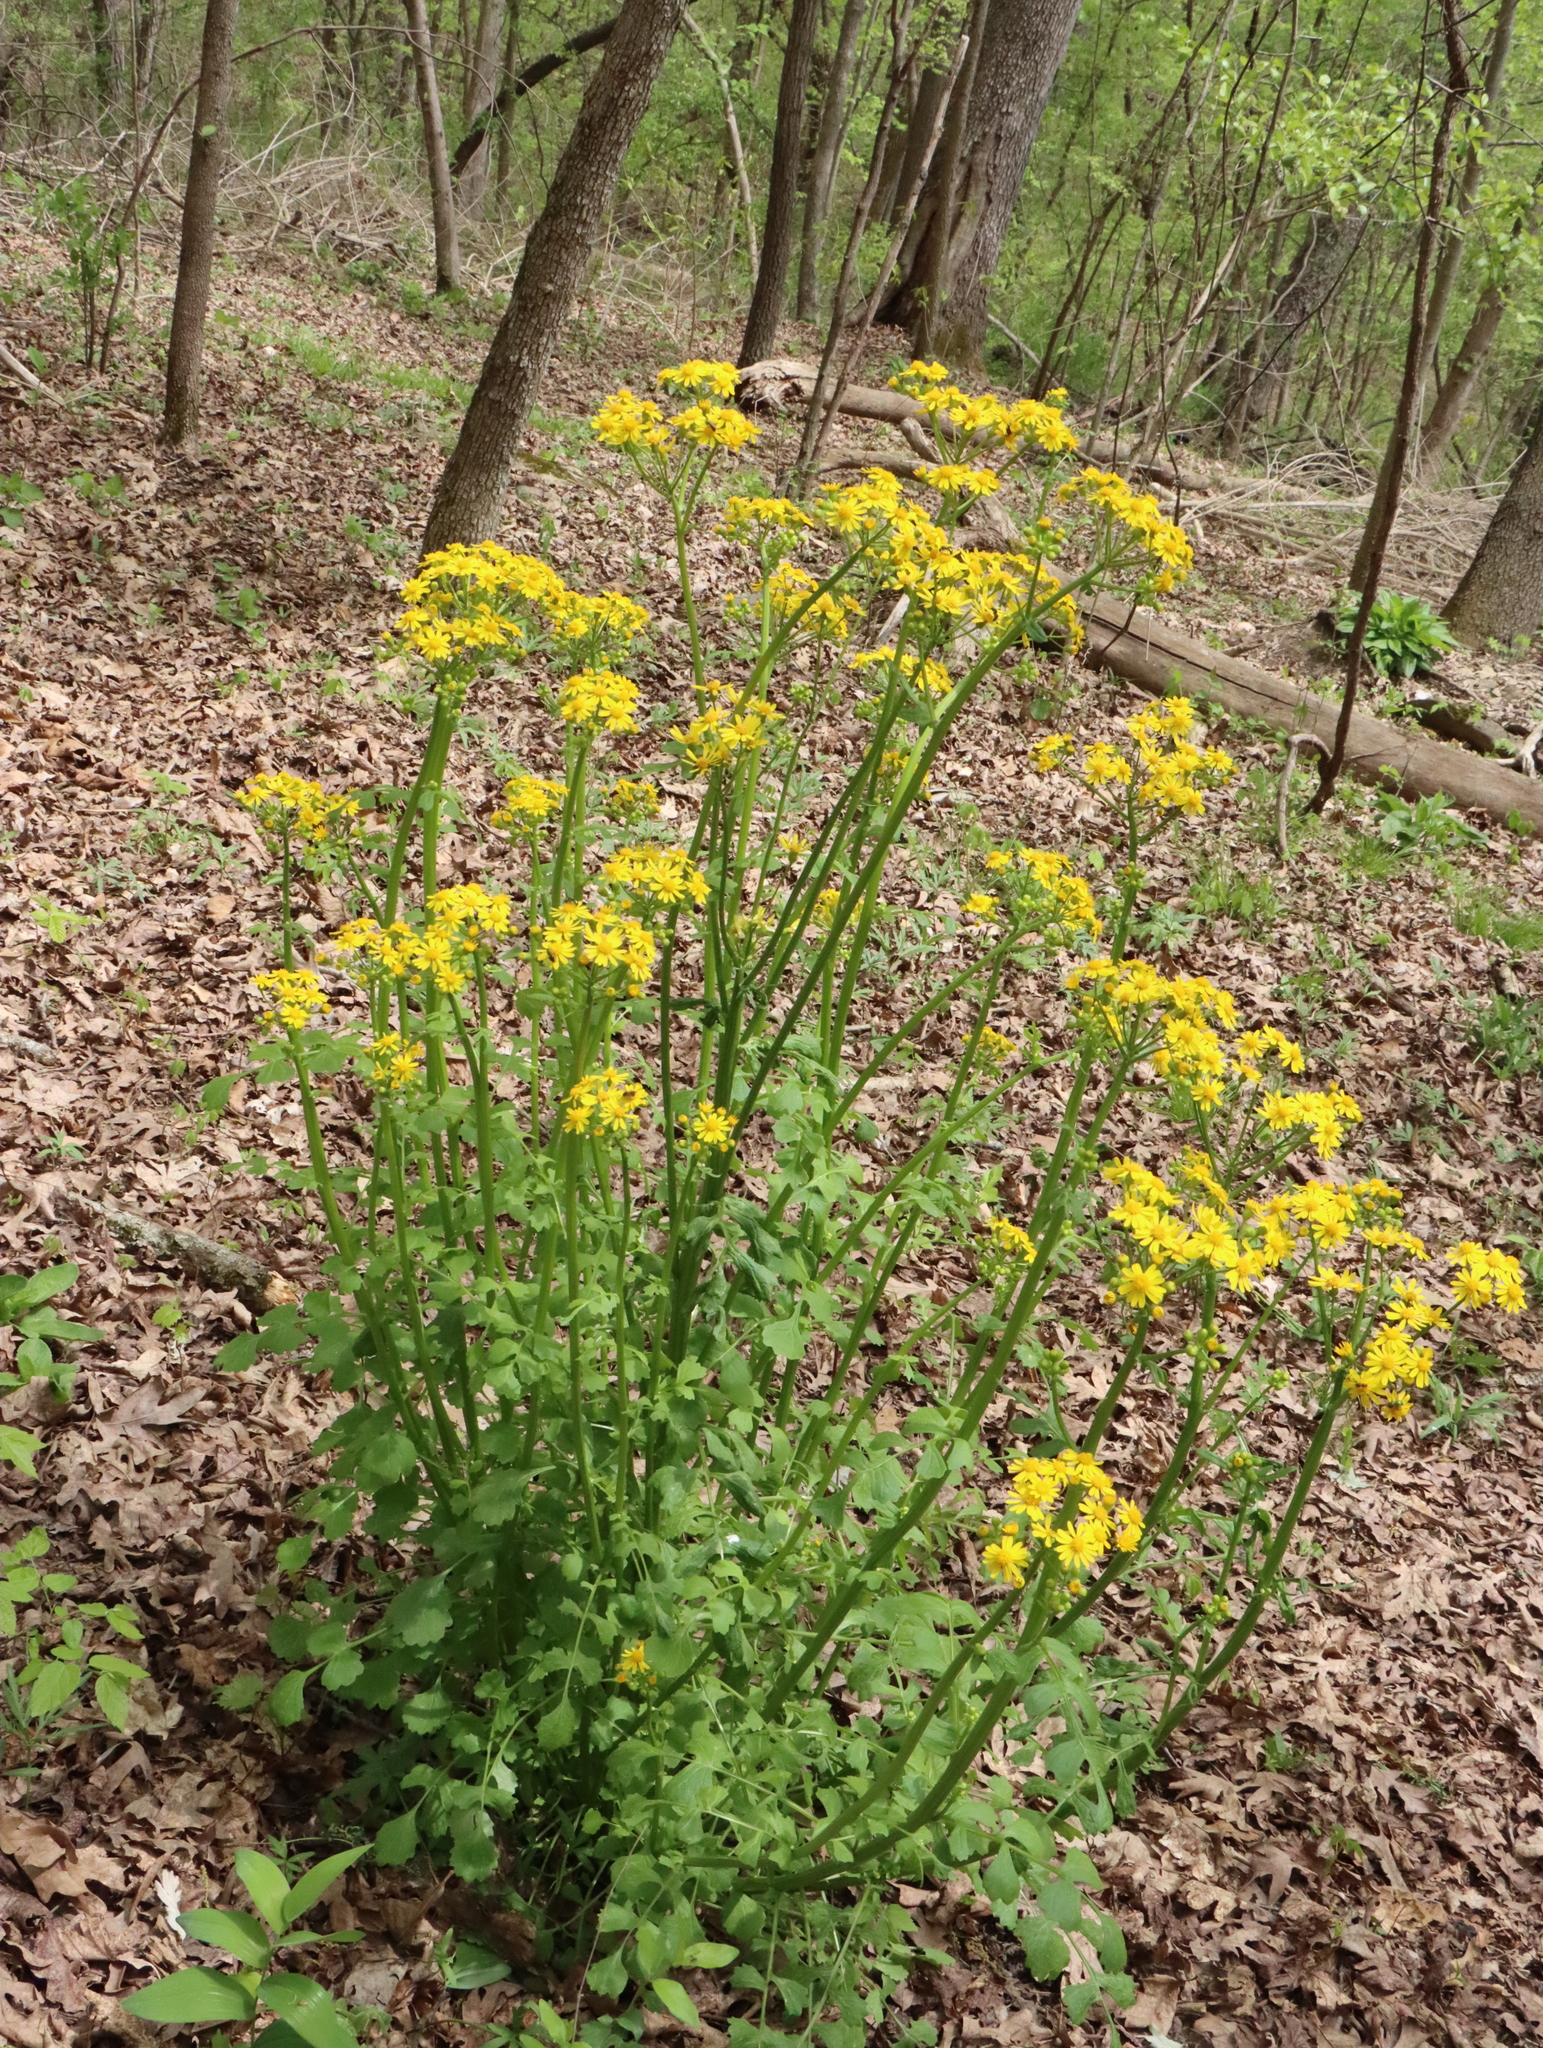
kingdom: Plantae
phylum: Tracheophyta
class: Magnoliopsida
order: Asterales
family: Asteraceae
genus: Packera
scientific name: Packera glabella
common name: Butterweed
